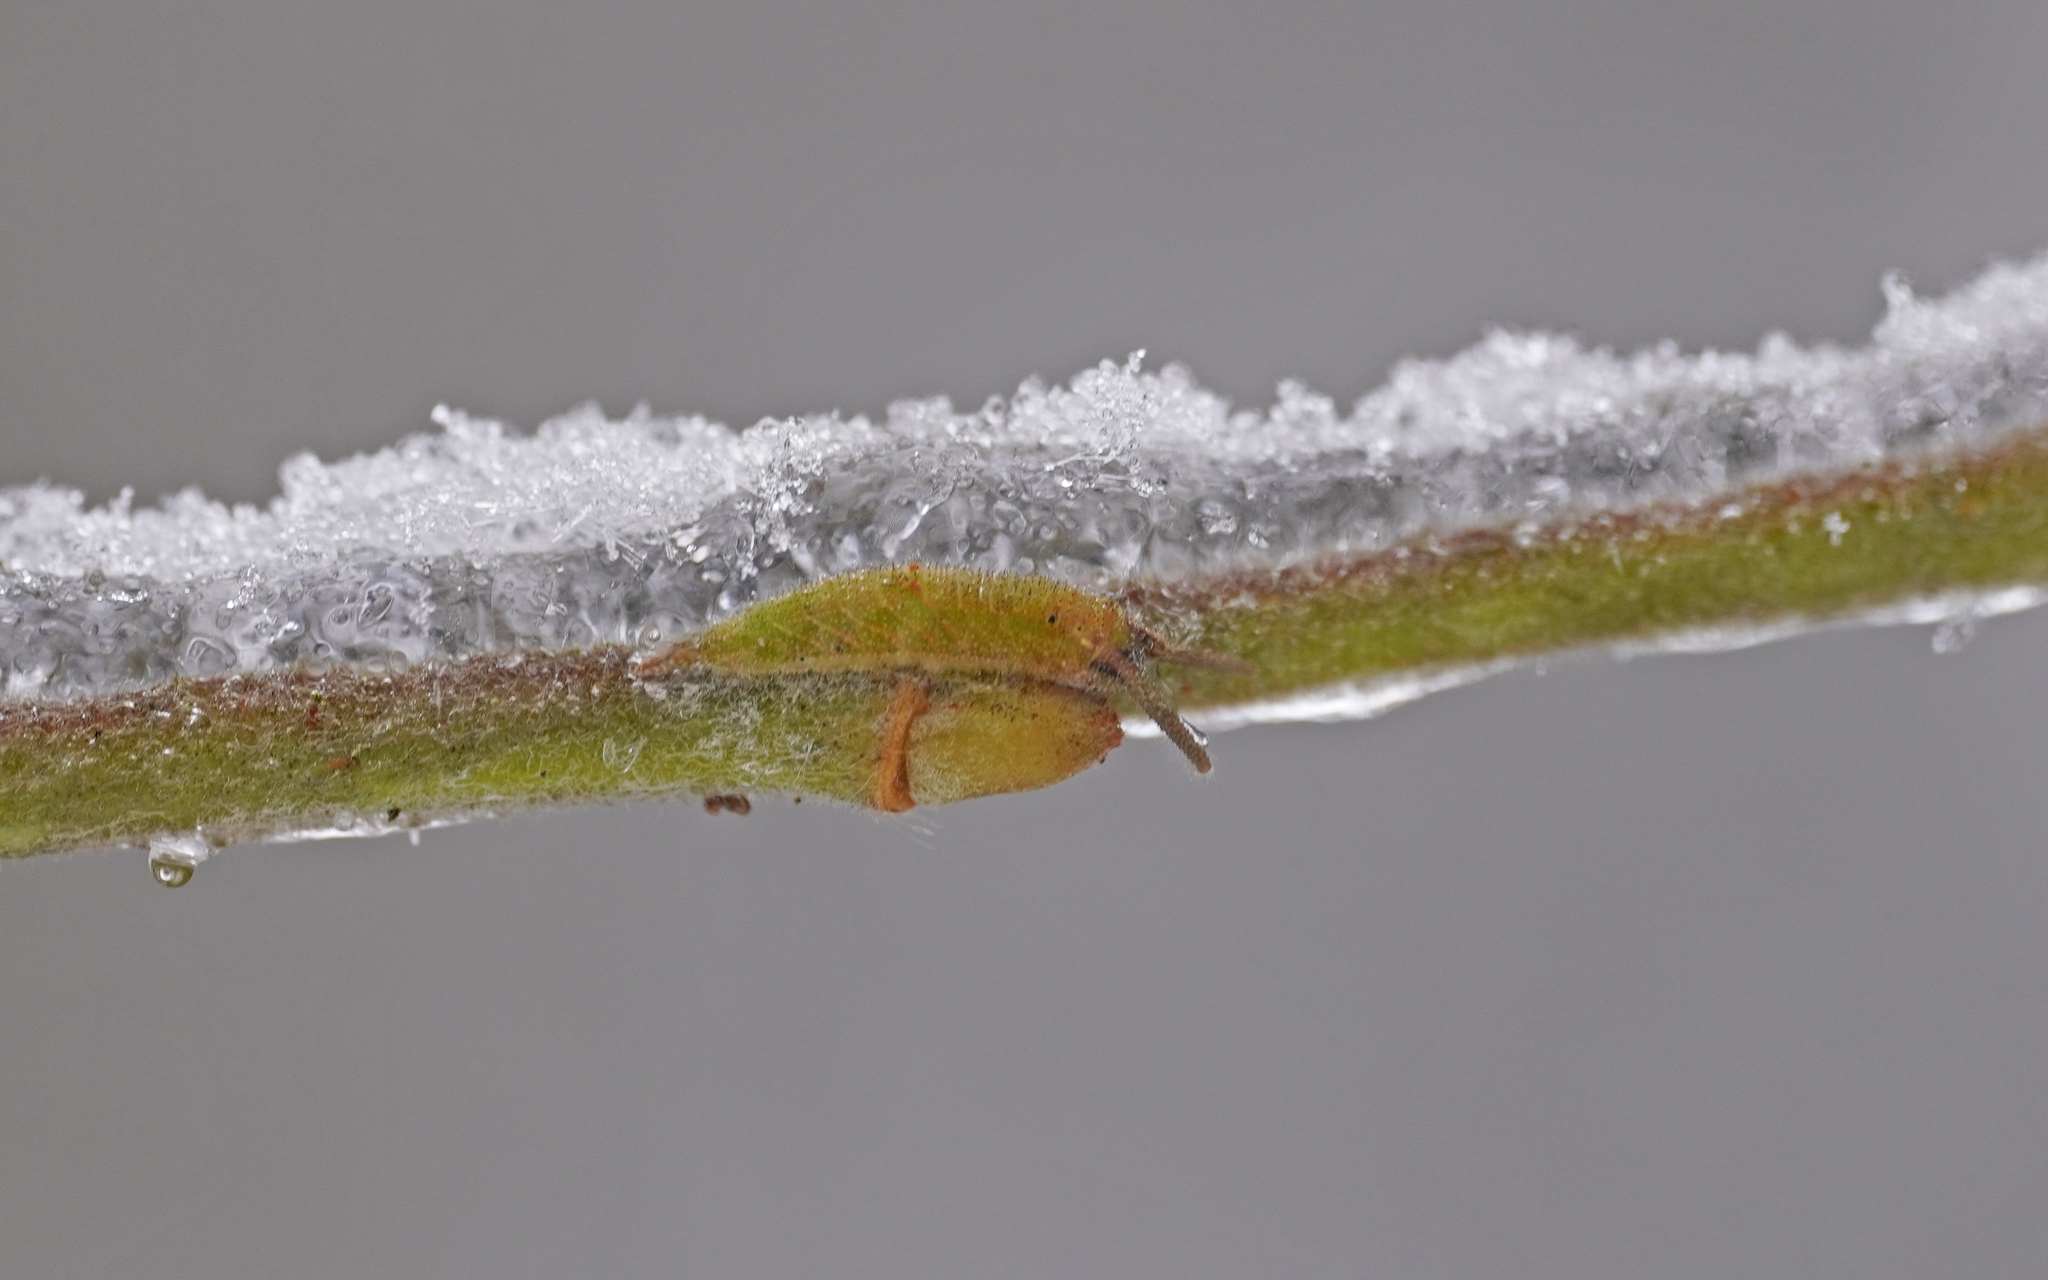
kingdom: Animalia
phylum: Arthropoda
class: Insecta
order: Lepidoptera
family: Nymphalidae
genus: Apatura
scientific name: Apatura iris
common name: Purple emperor
